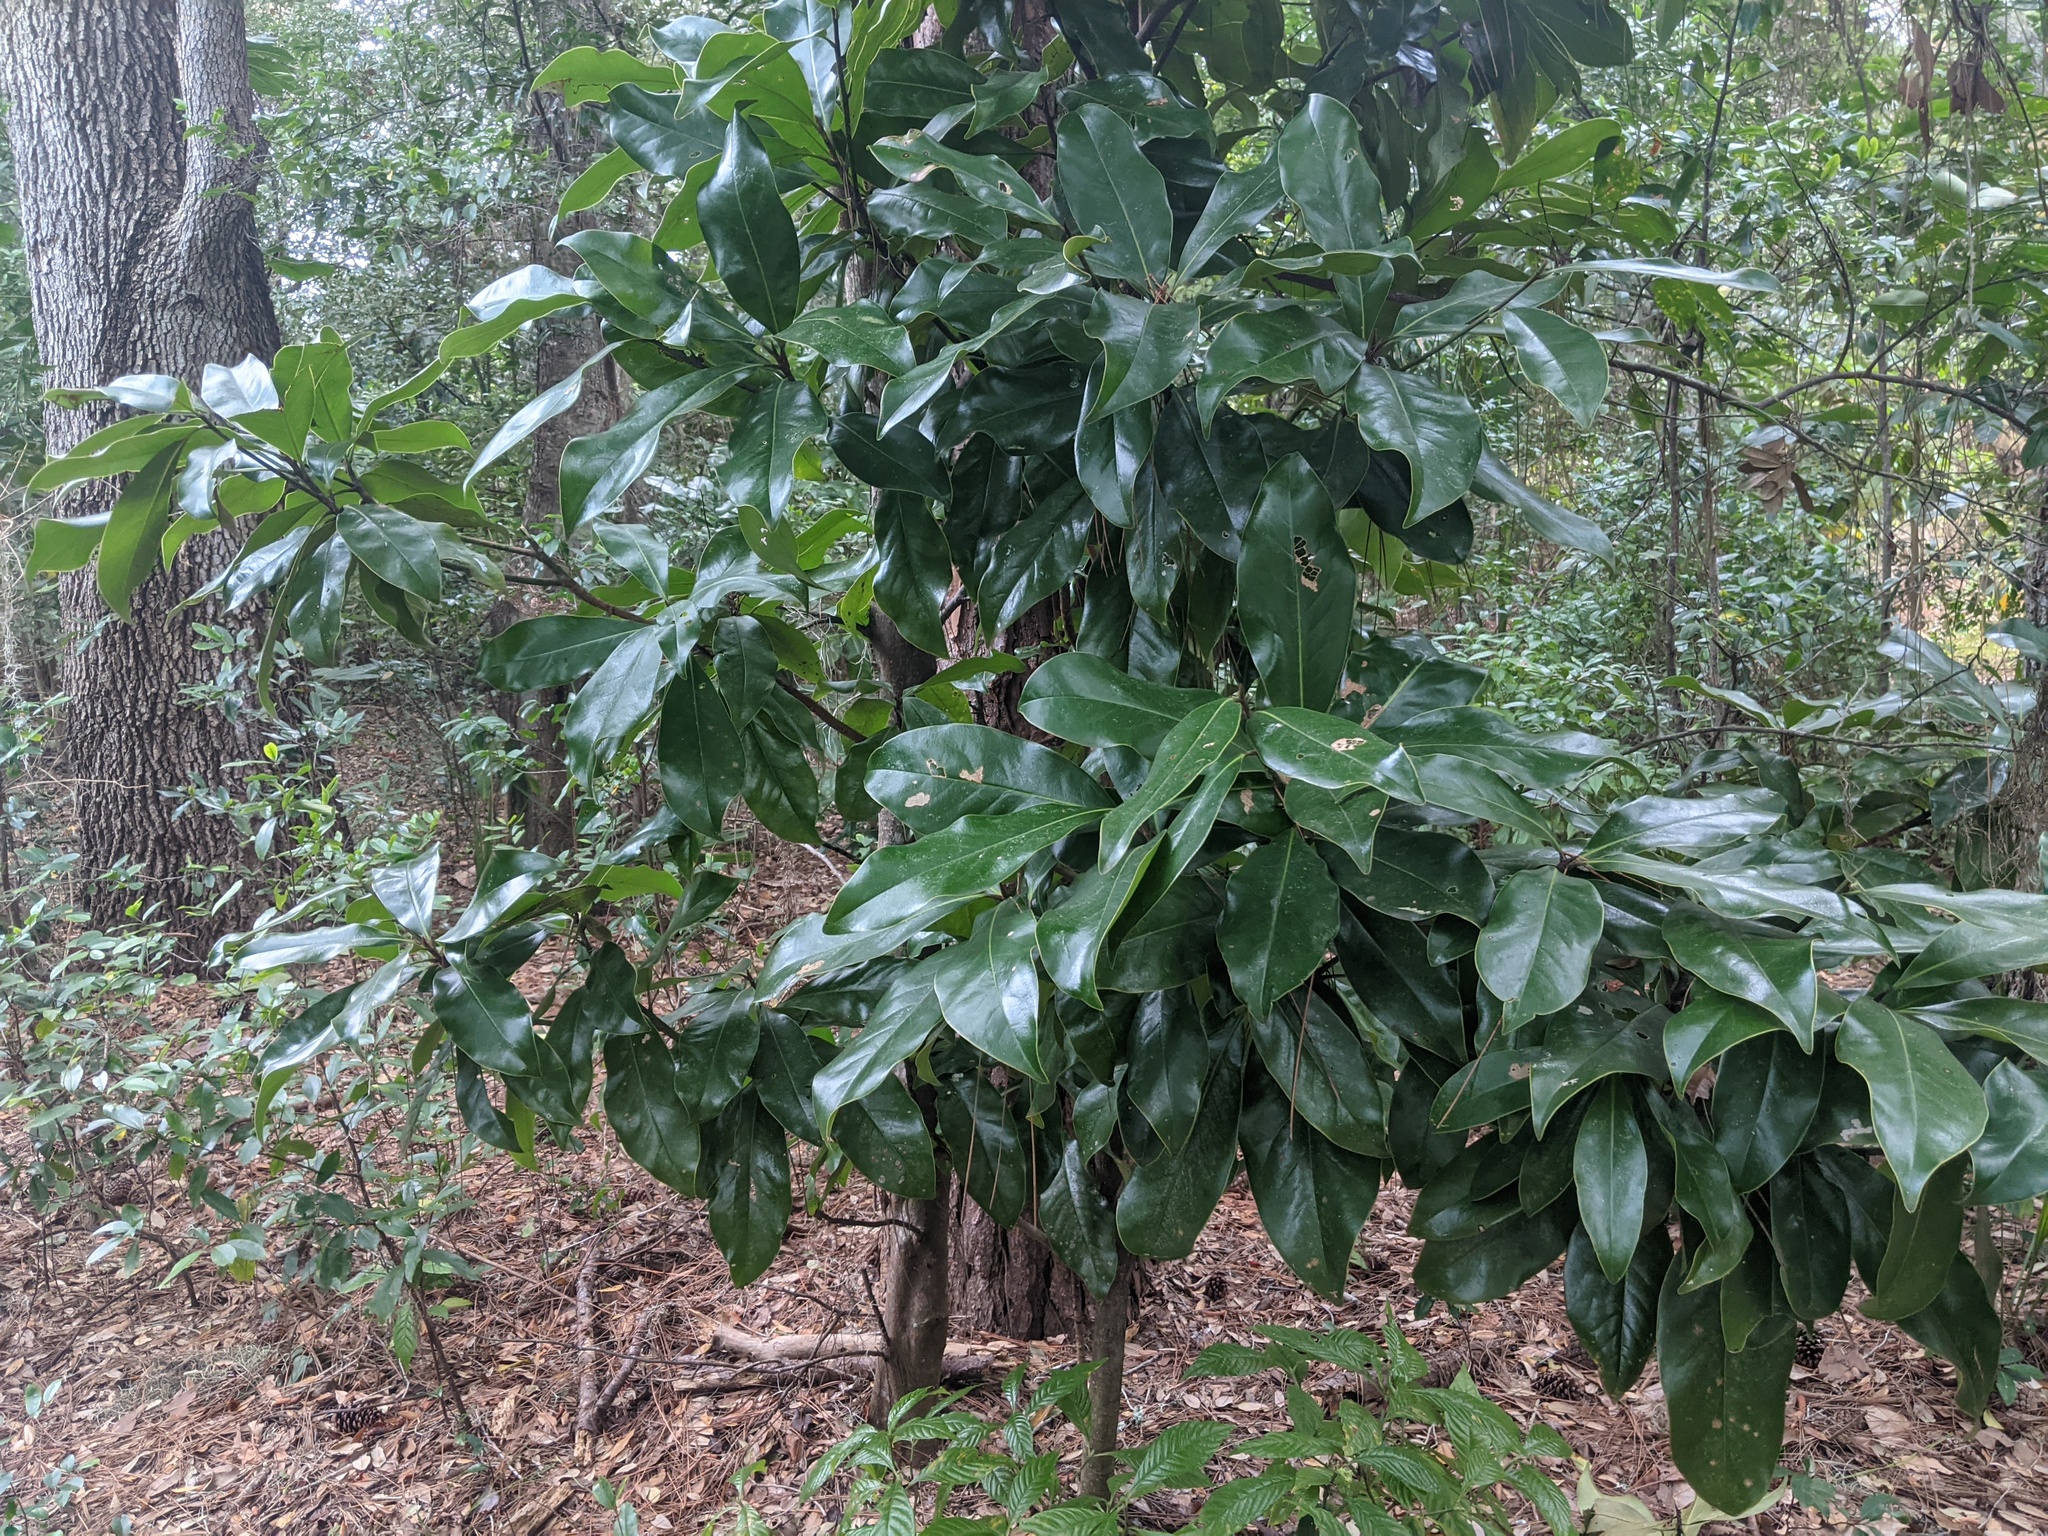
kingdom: Plantae
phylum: Tracheophyta
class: Magnoliopsida
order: Apiales
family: Araliaceae
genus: Heptapleurum
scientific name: Heptapleurum actinophyllum
